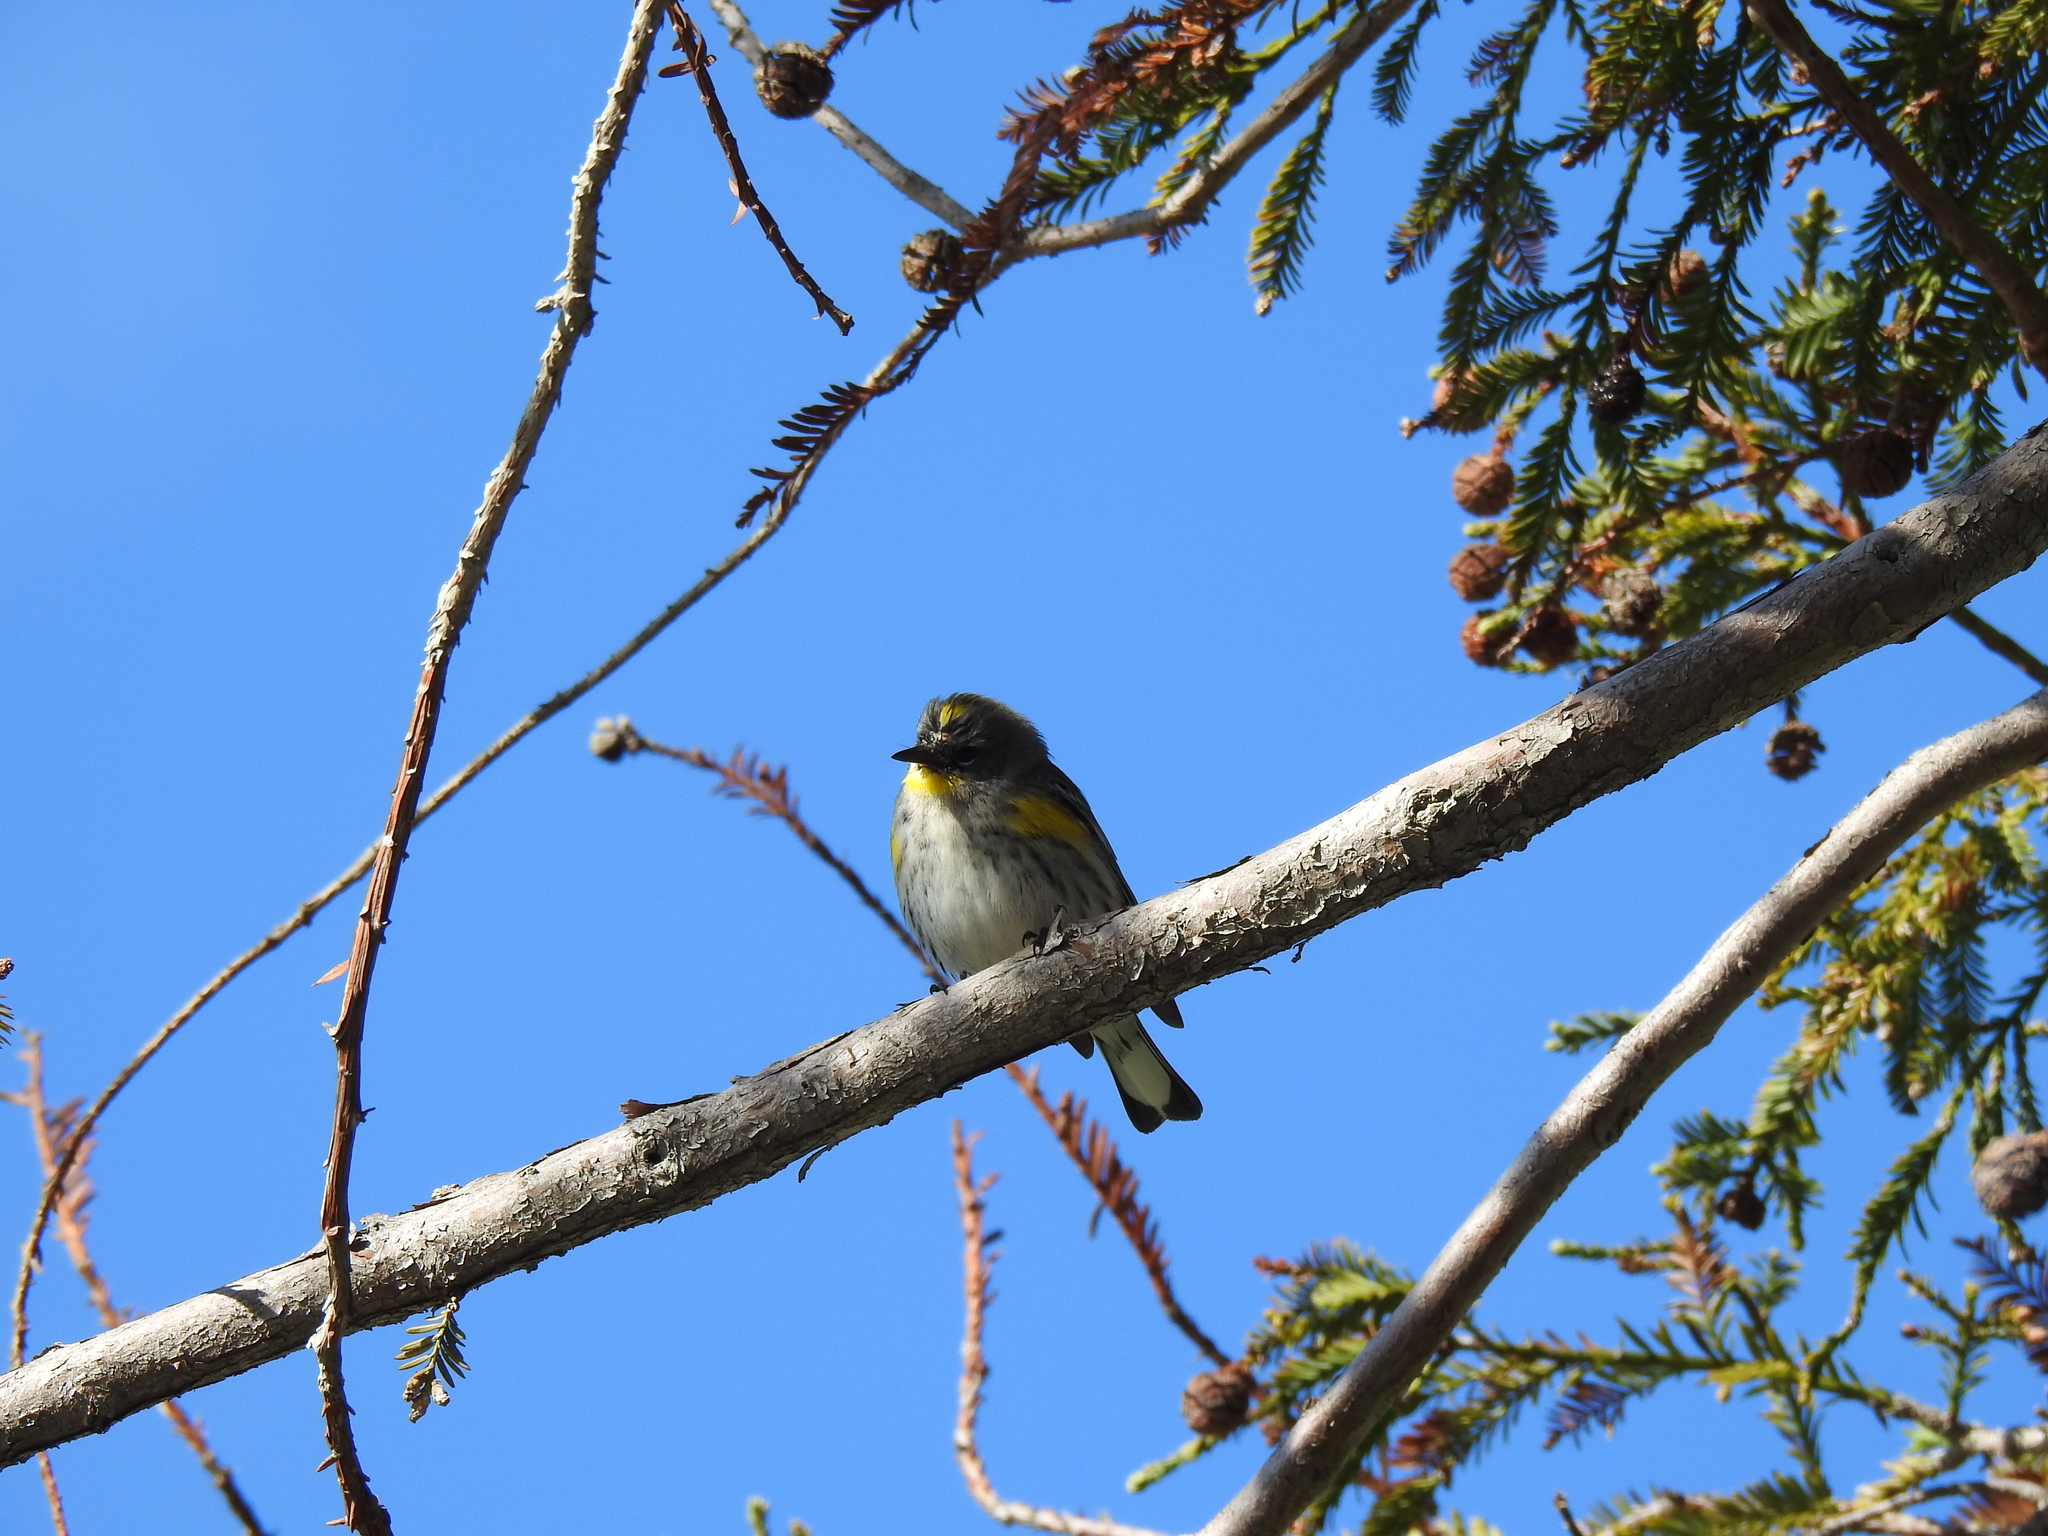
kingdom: Animalia
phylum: Chordata
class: Aves
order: Passeriformes
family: Parulidae
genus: Setophaga
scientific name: Setophaga coronata
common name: Myrtle warbler
